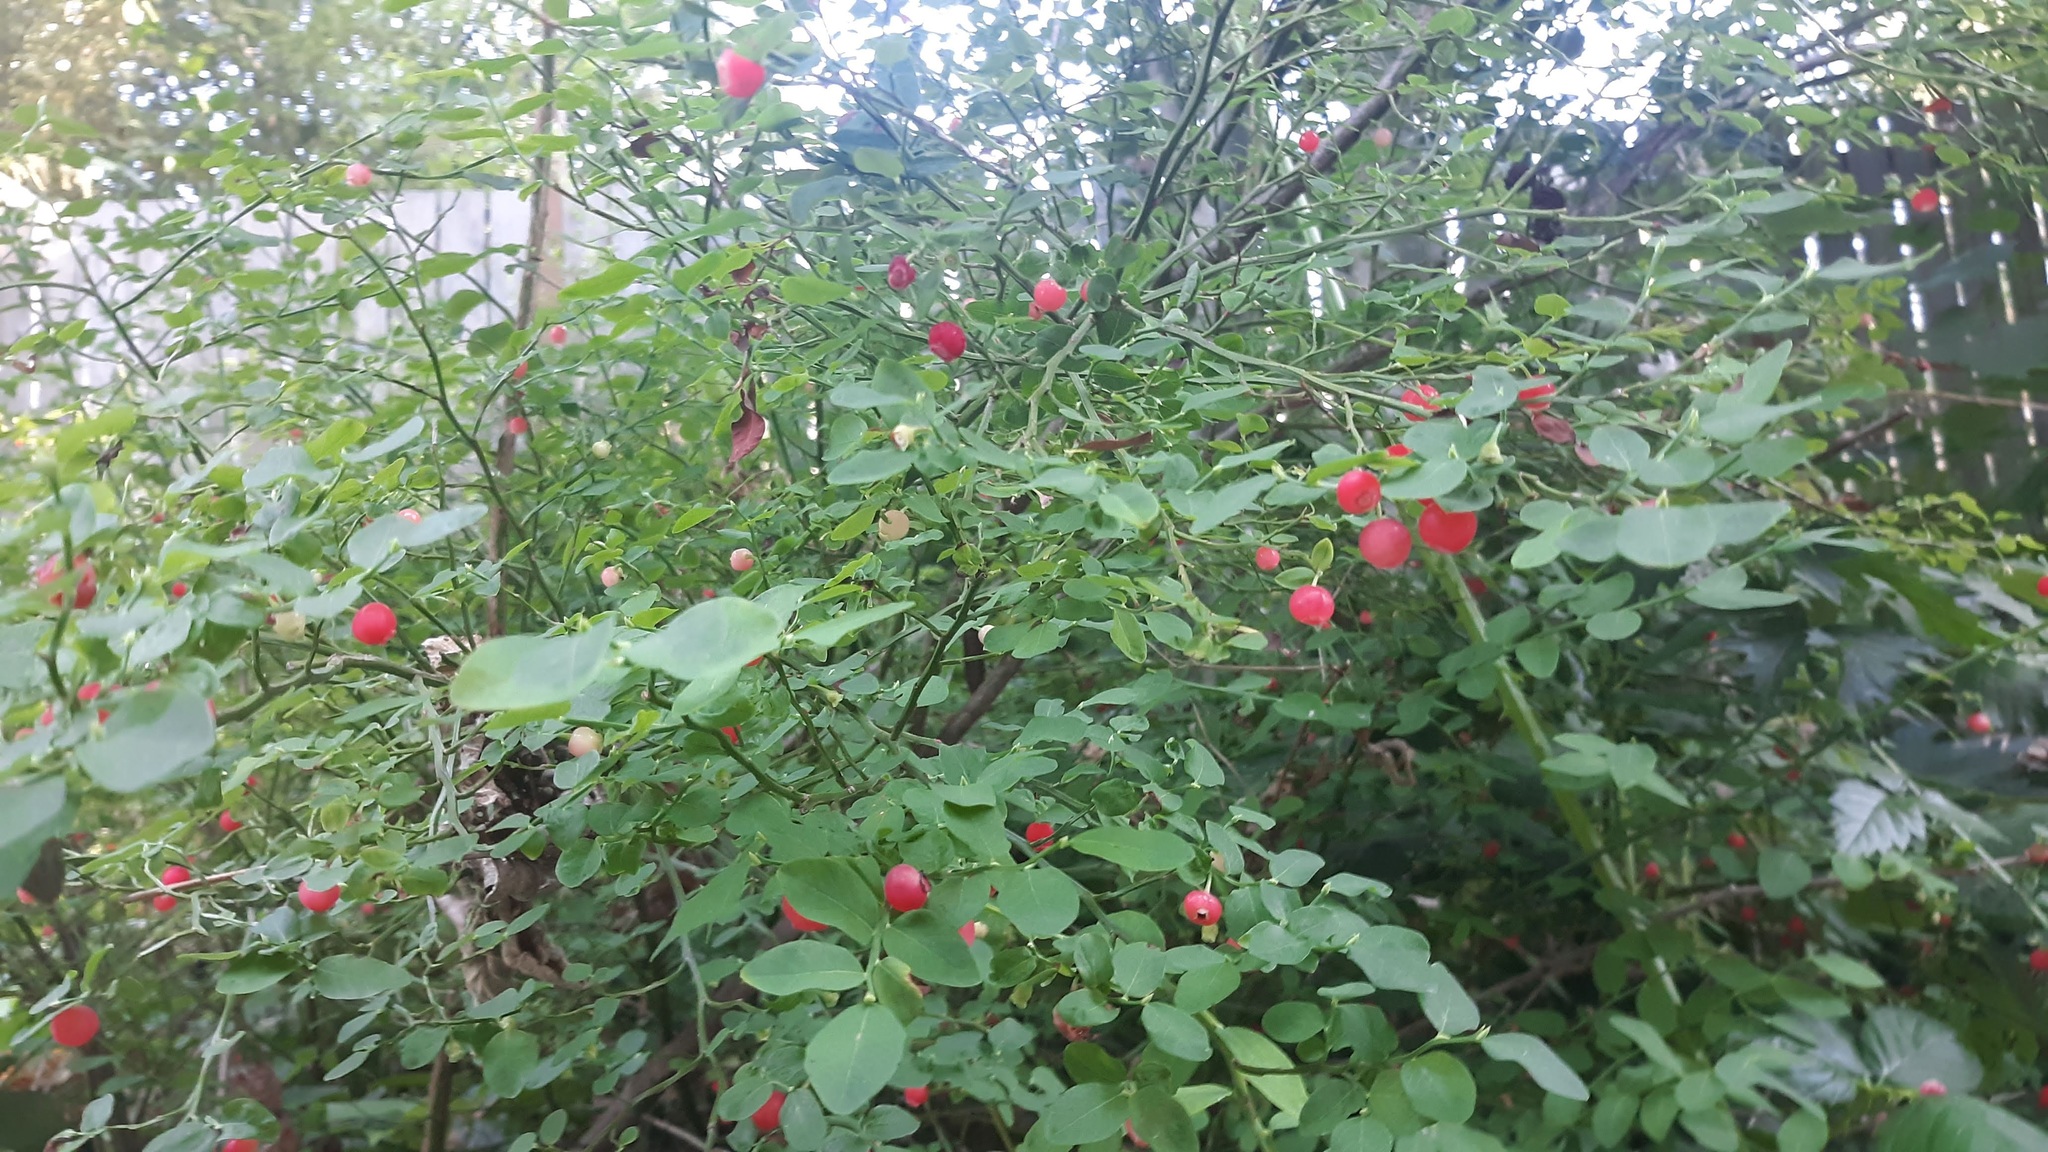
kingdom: Plantae
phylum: Tracheophyta
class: Magnoliopsida
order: Ericales
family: Ericaceae
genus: Vaccinium
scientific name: Vaccinium parvifolium
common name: Red-huckleberry
